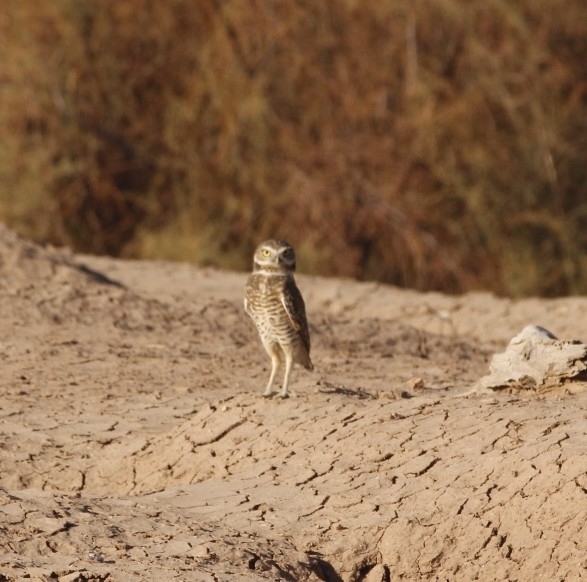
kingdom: Animalia
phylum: Chordata
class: Aves
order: Strigiformes
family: Strigidae
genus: Athene
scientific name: Athene cunicularia
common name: Burrowing owl
